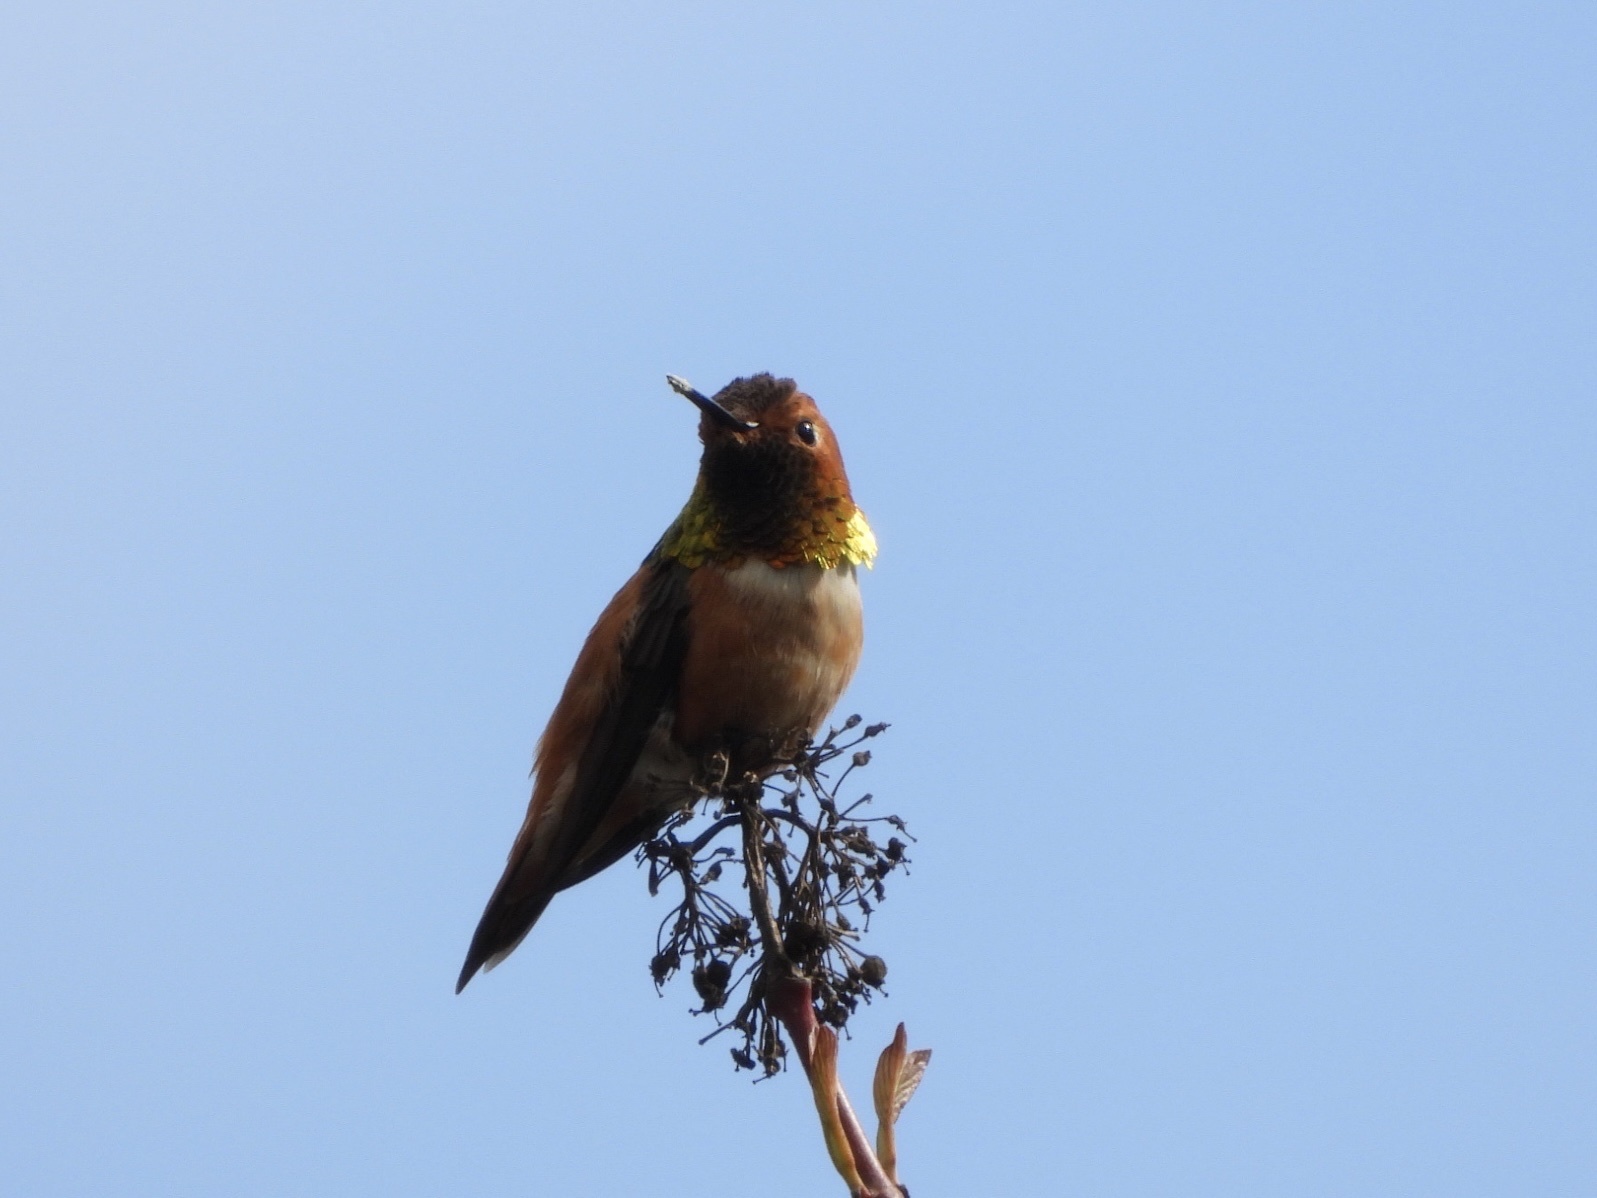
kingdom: Animalia
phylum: Chordata
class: Aves
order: Apodiformes
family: Trochilidae
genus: Selasphorus
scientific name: Selasphorus rufus
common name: Rufous hummingbird
